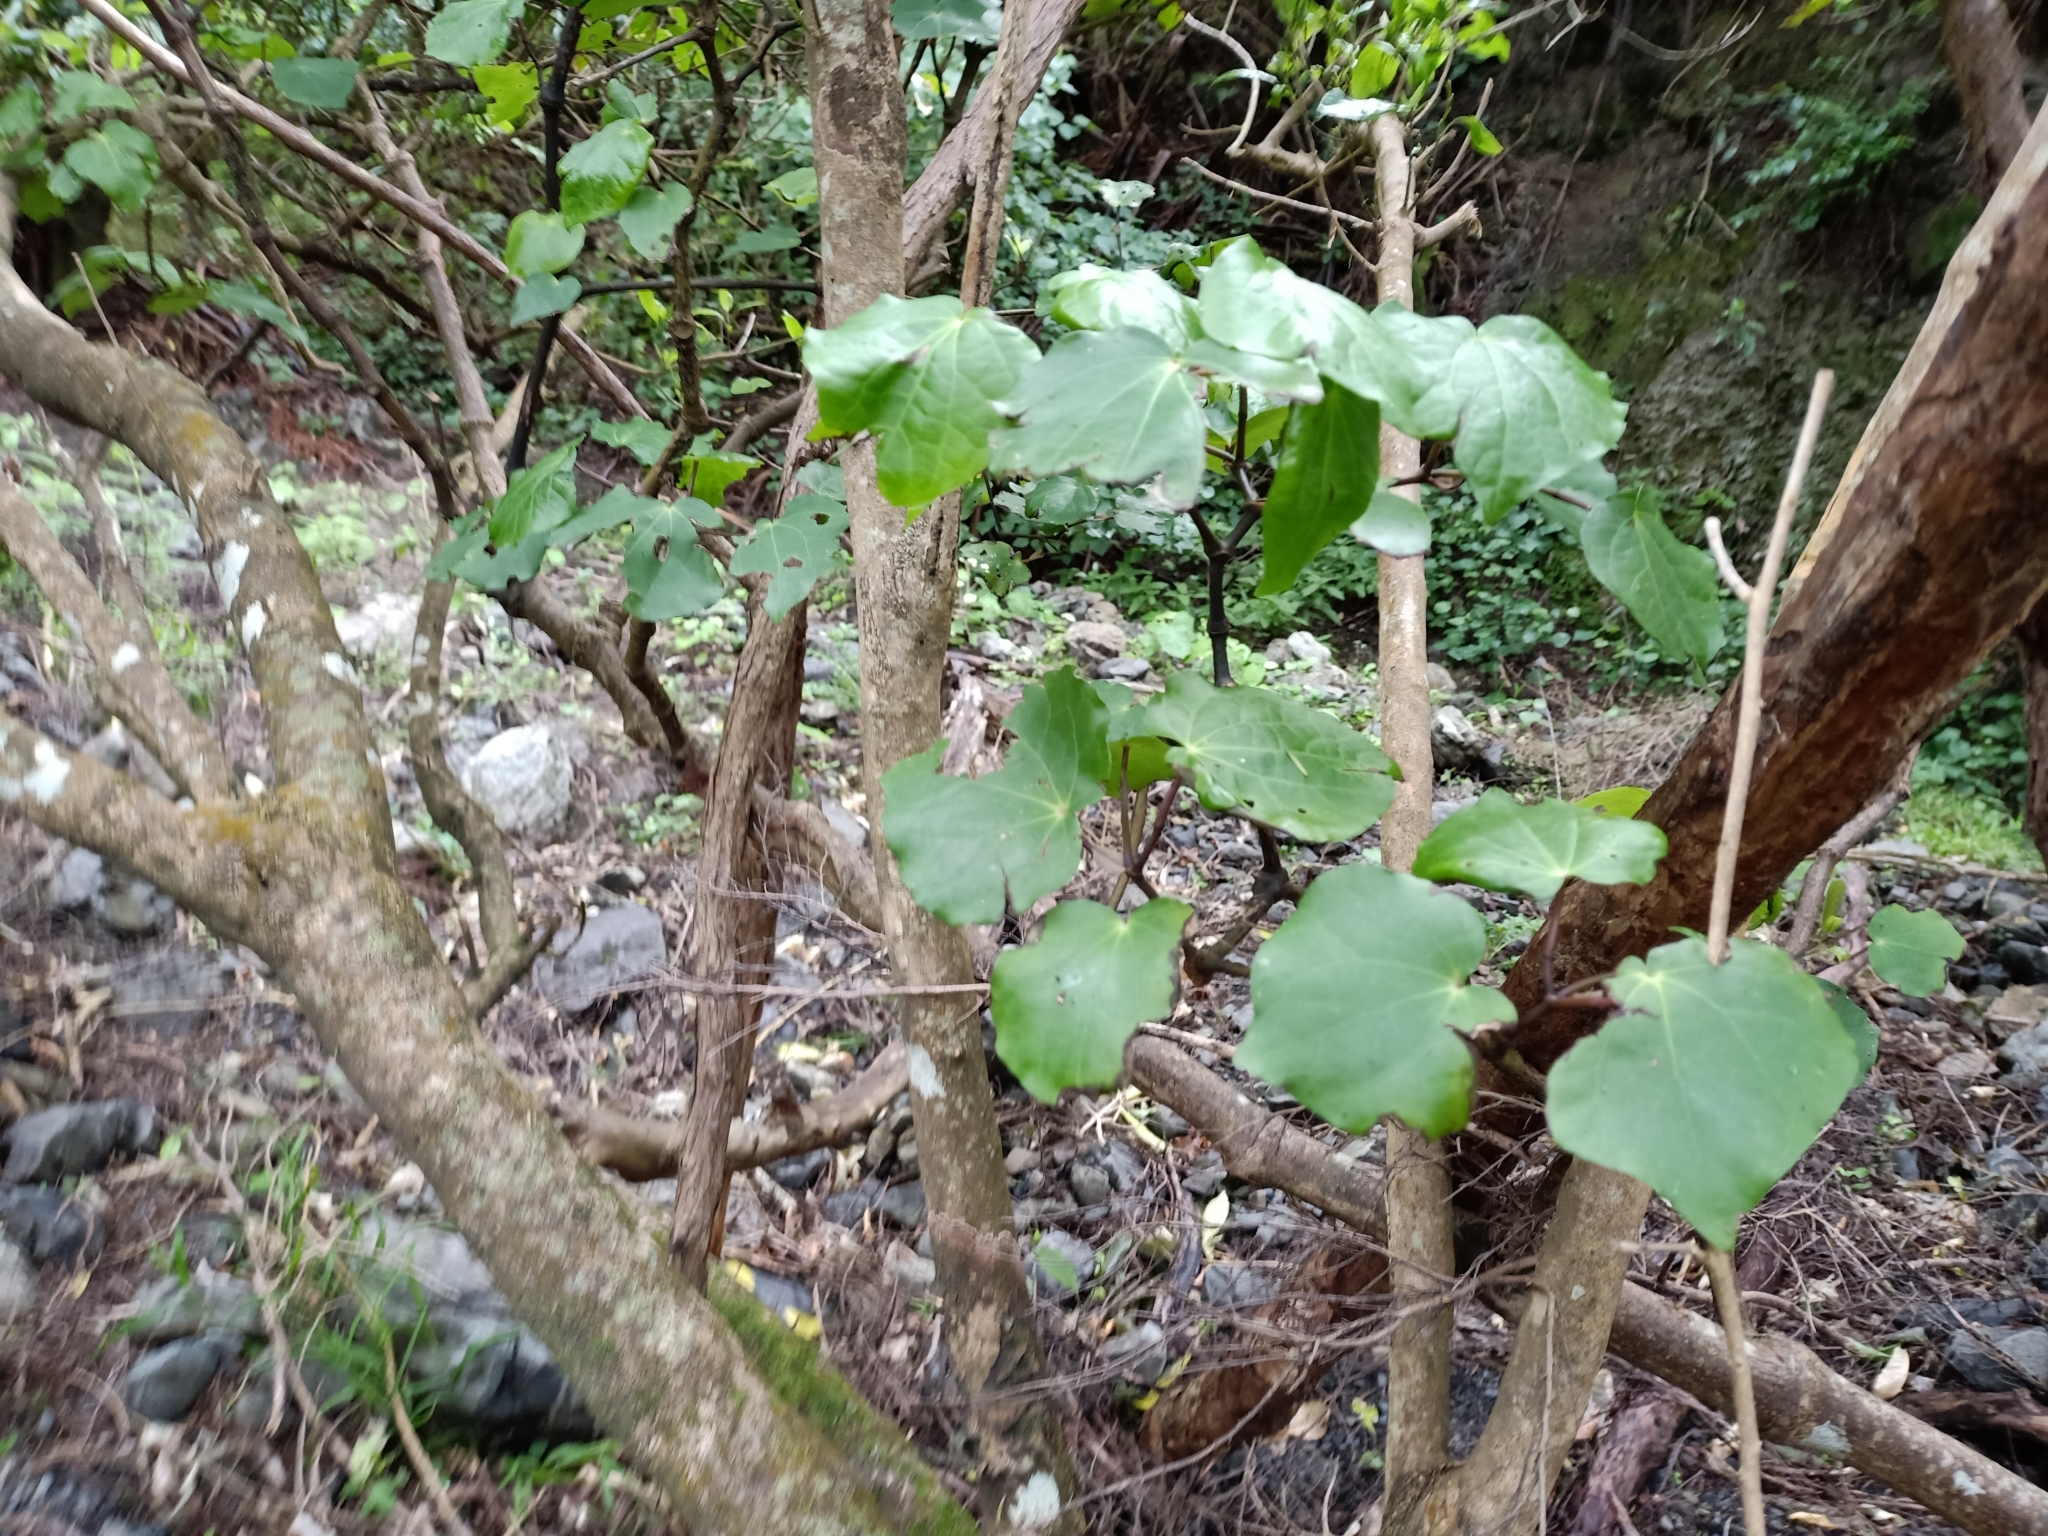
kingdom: Plantae
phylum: Tracheophyta
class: Magnoliopsida
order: Piperales
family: Piperaceae
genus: Macropiper
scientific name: Macropiper excelsum
